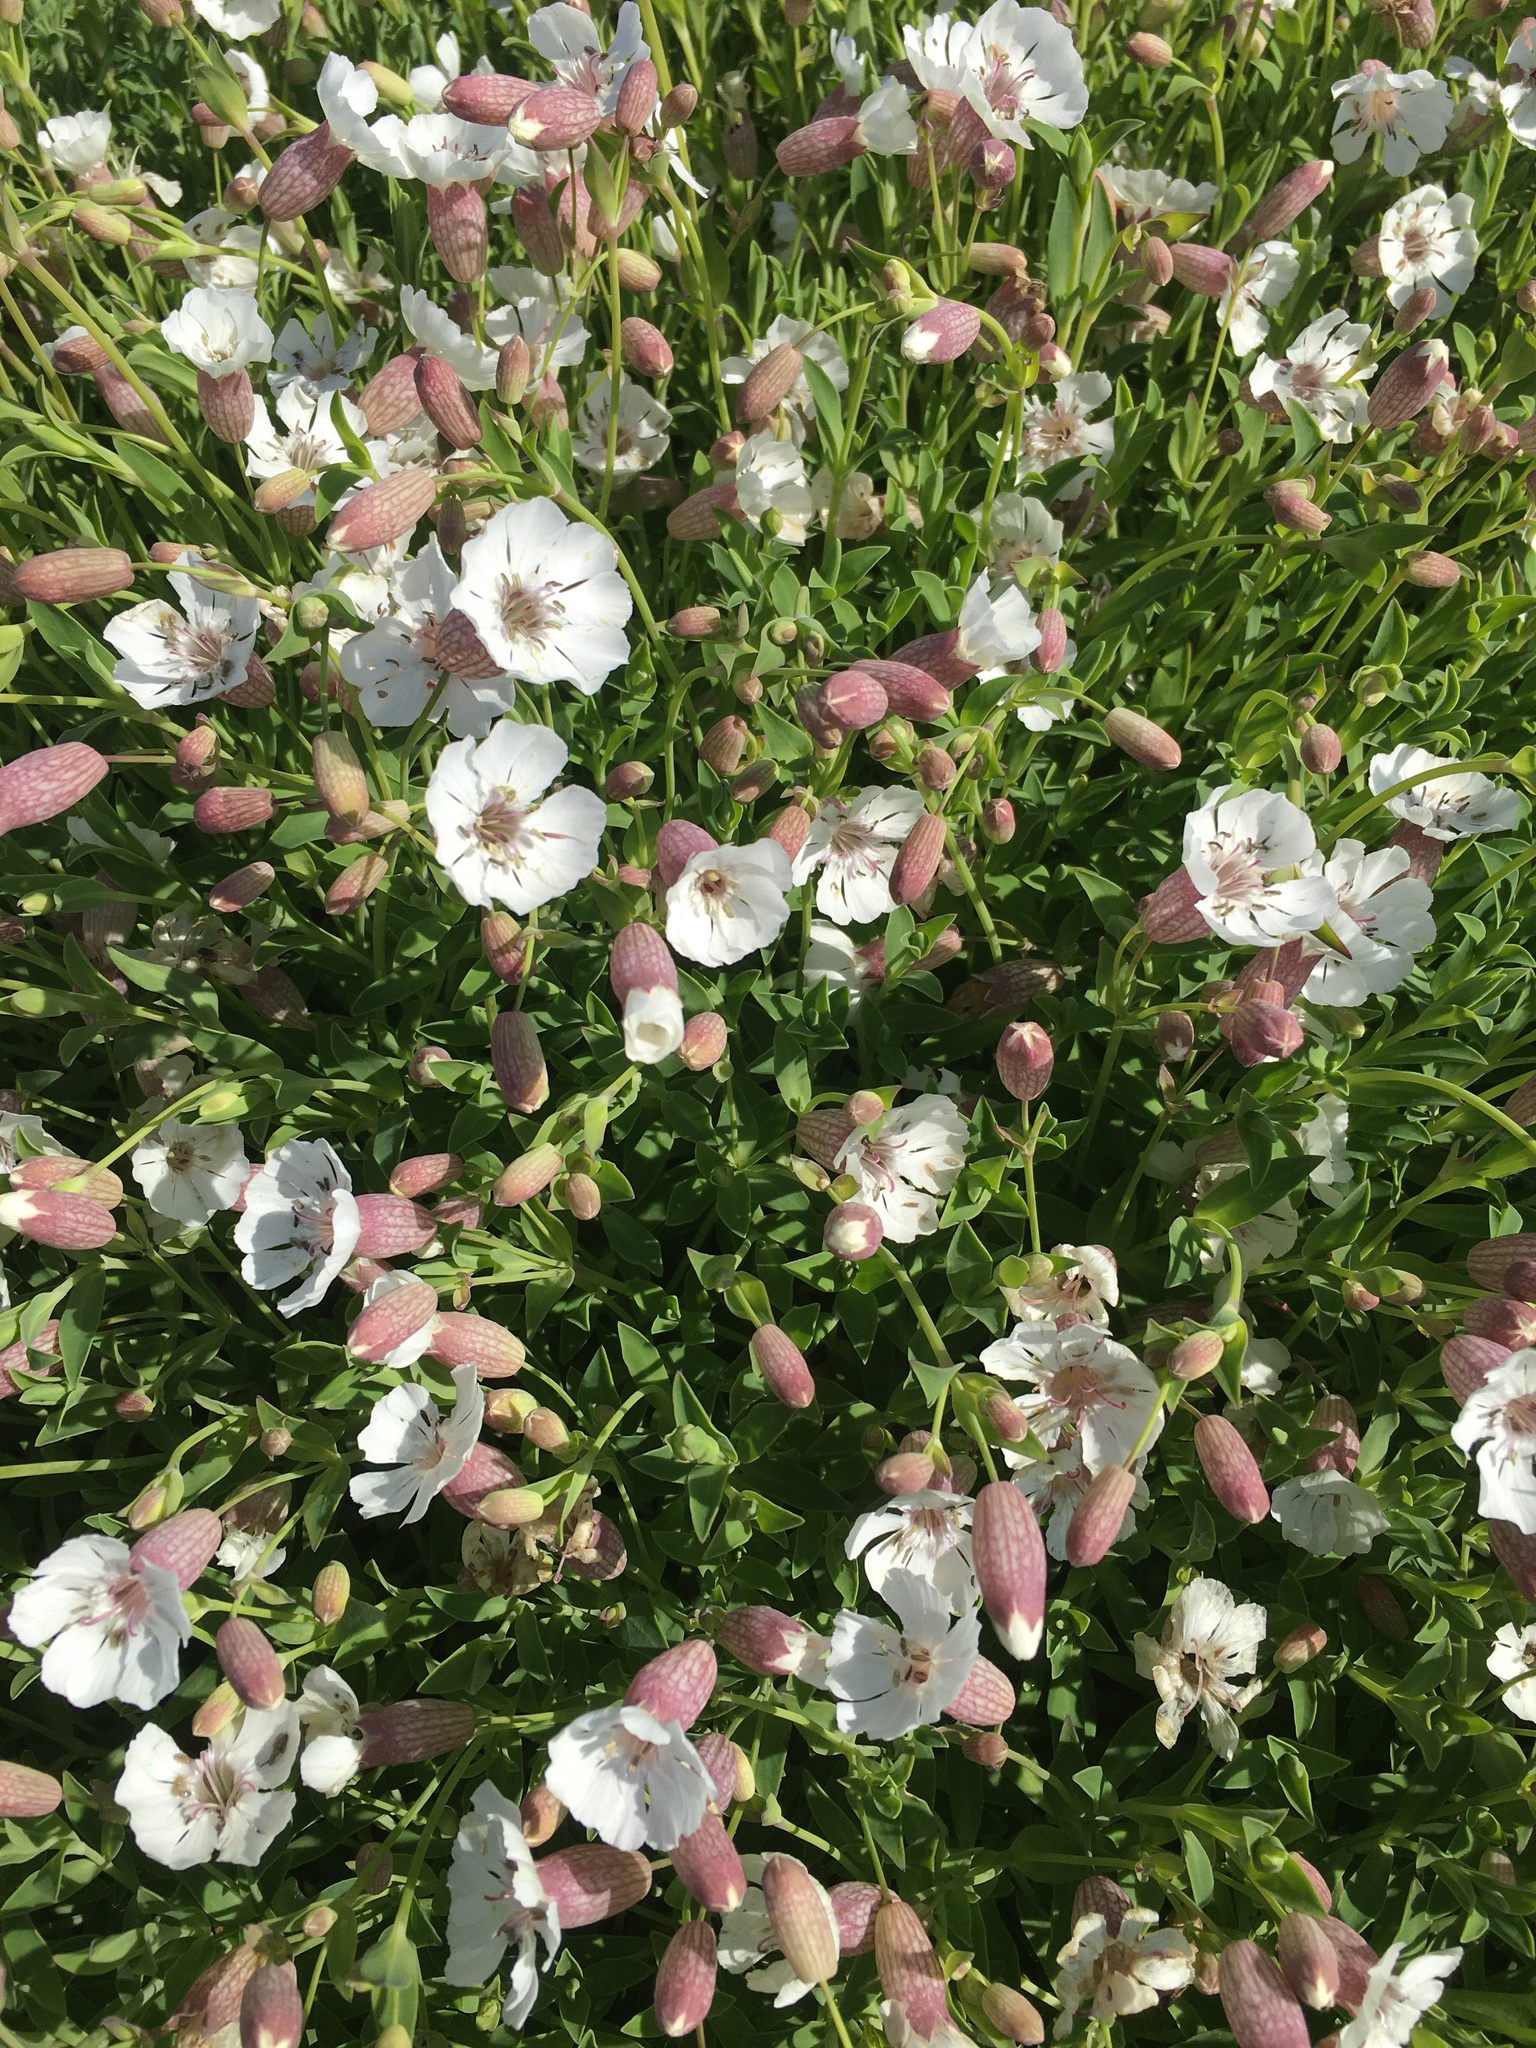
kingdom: Plantae
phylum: Tracheophyta
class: Magnoliopsida
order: Caryophyllales
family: Caryophyllaceae
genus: Silene
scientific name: Silene uniflora
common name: Sea campion
